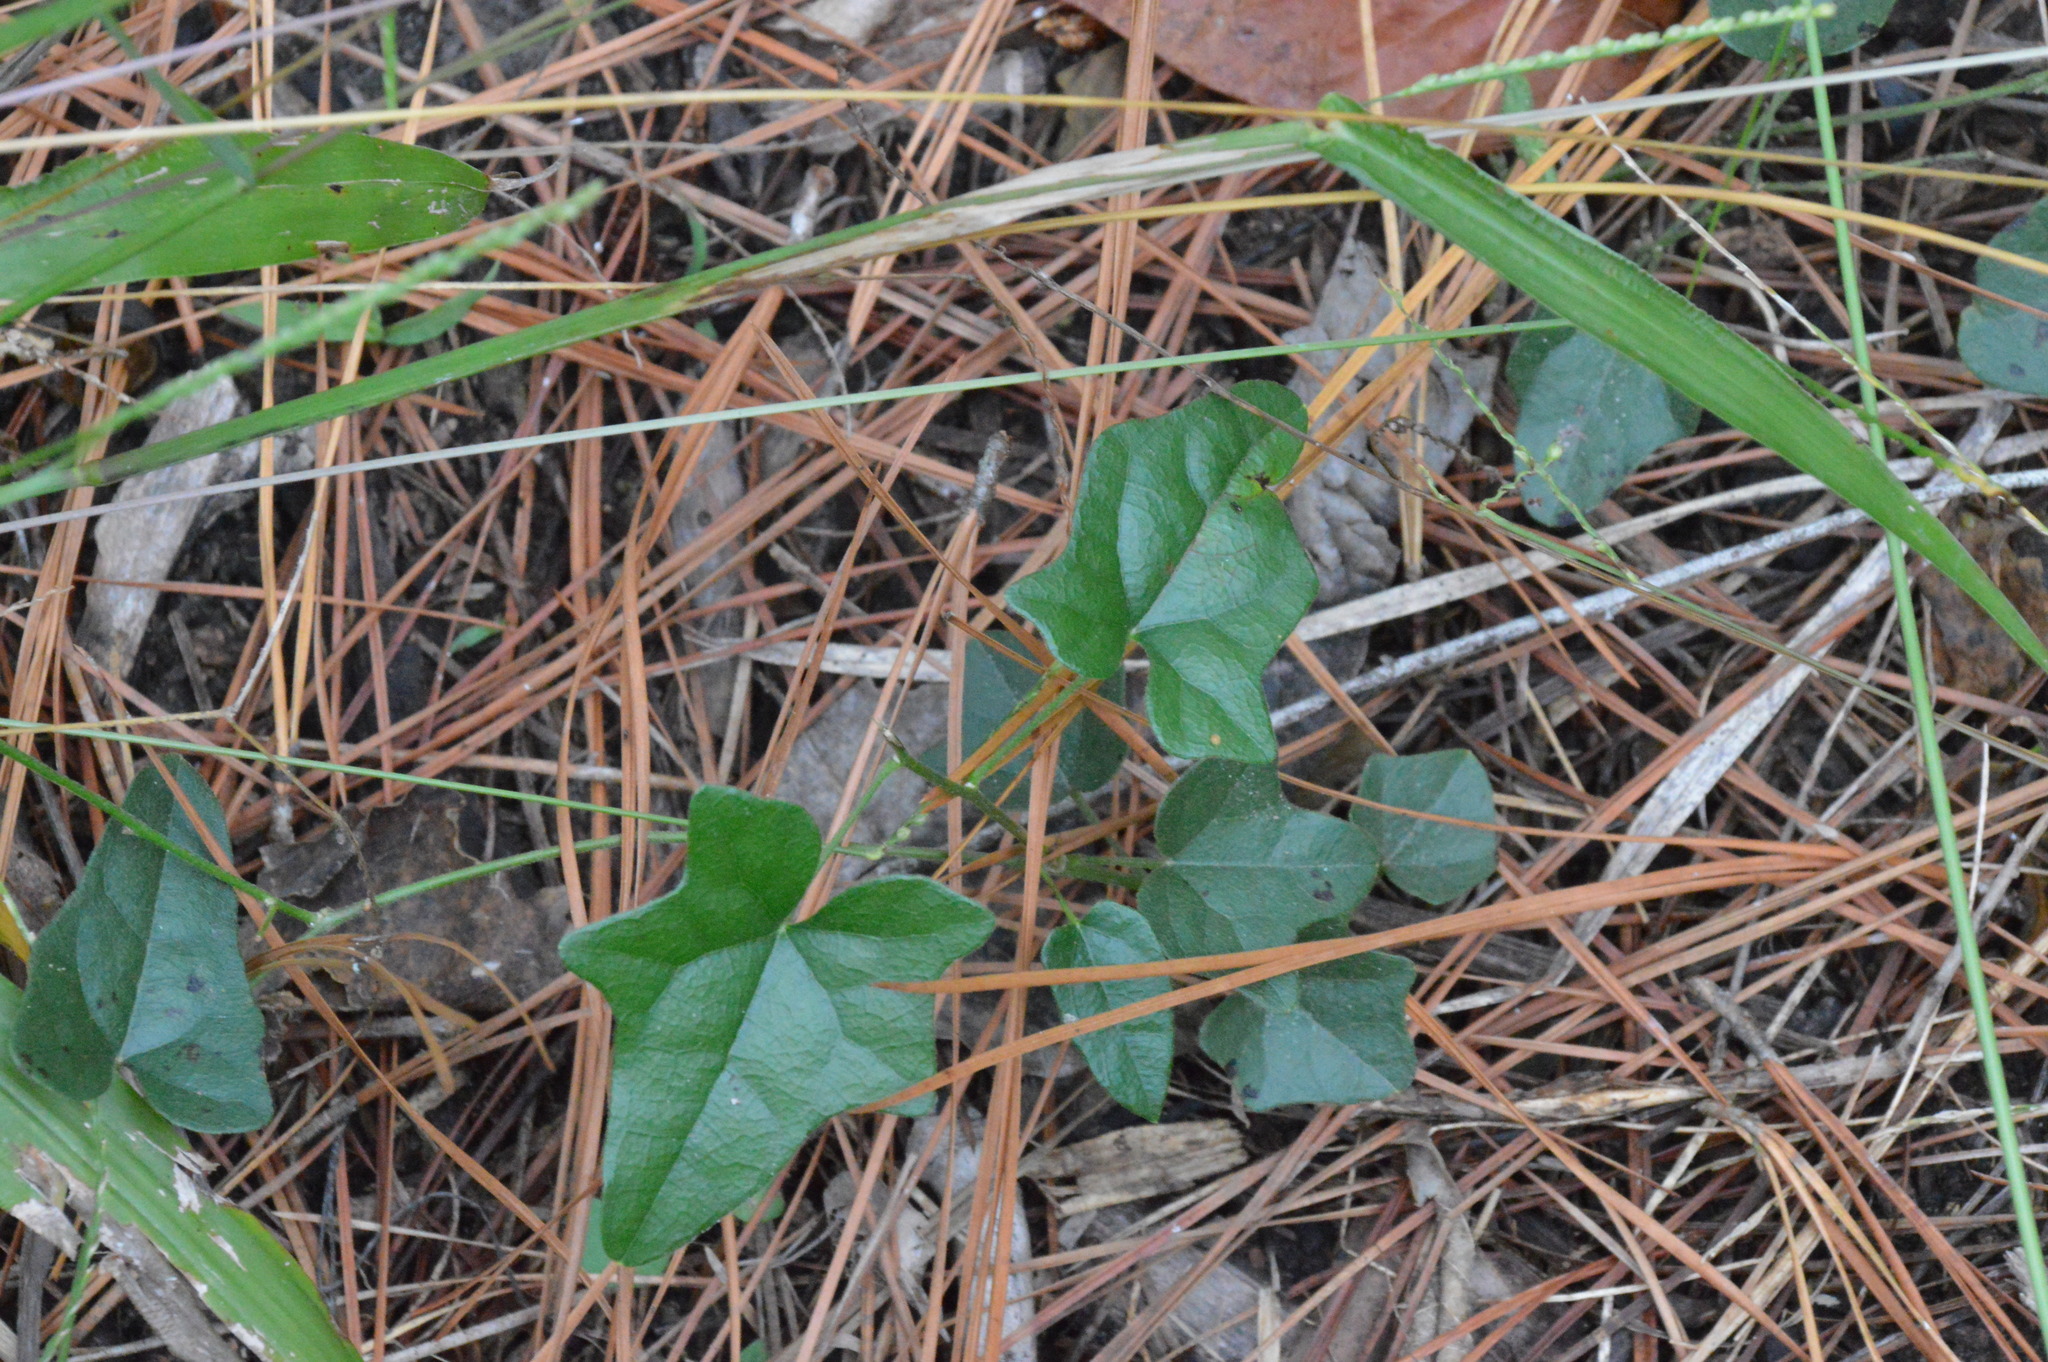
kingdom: Plantae
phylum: Tracheophyta
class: Magnoliopsida
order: Ranunculales
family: Menispermaceae
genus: Cocculus
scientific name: Cocculus carolinus
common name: Carolina moonseed
